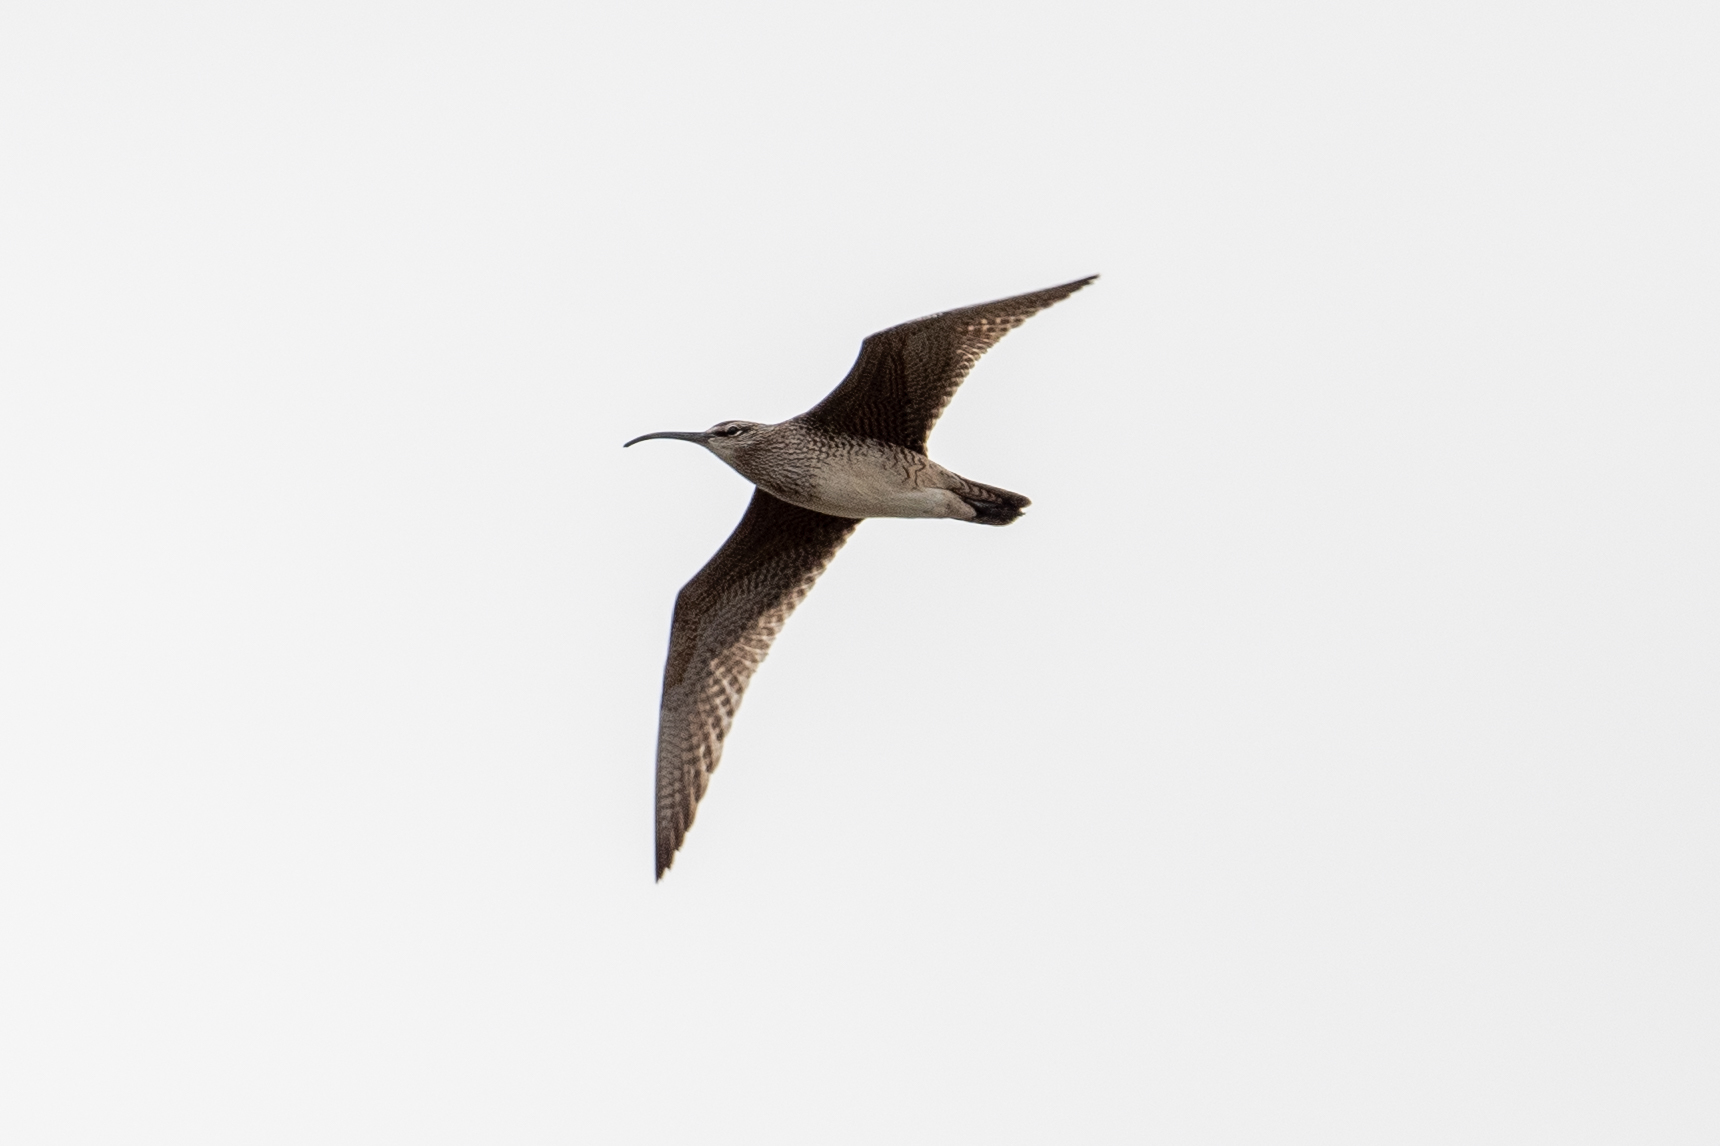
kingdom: Animalia
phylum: Chordata
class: Aves
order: Charadriiformes
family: Scolopacidae
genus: Numenius
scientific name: Numenius phaeopus
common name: Whimbrel
